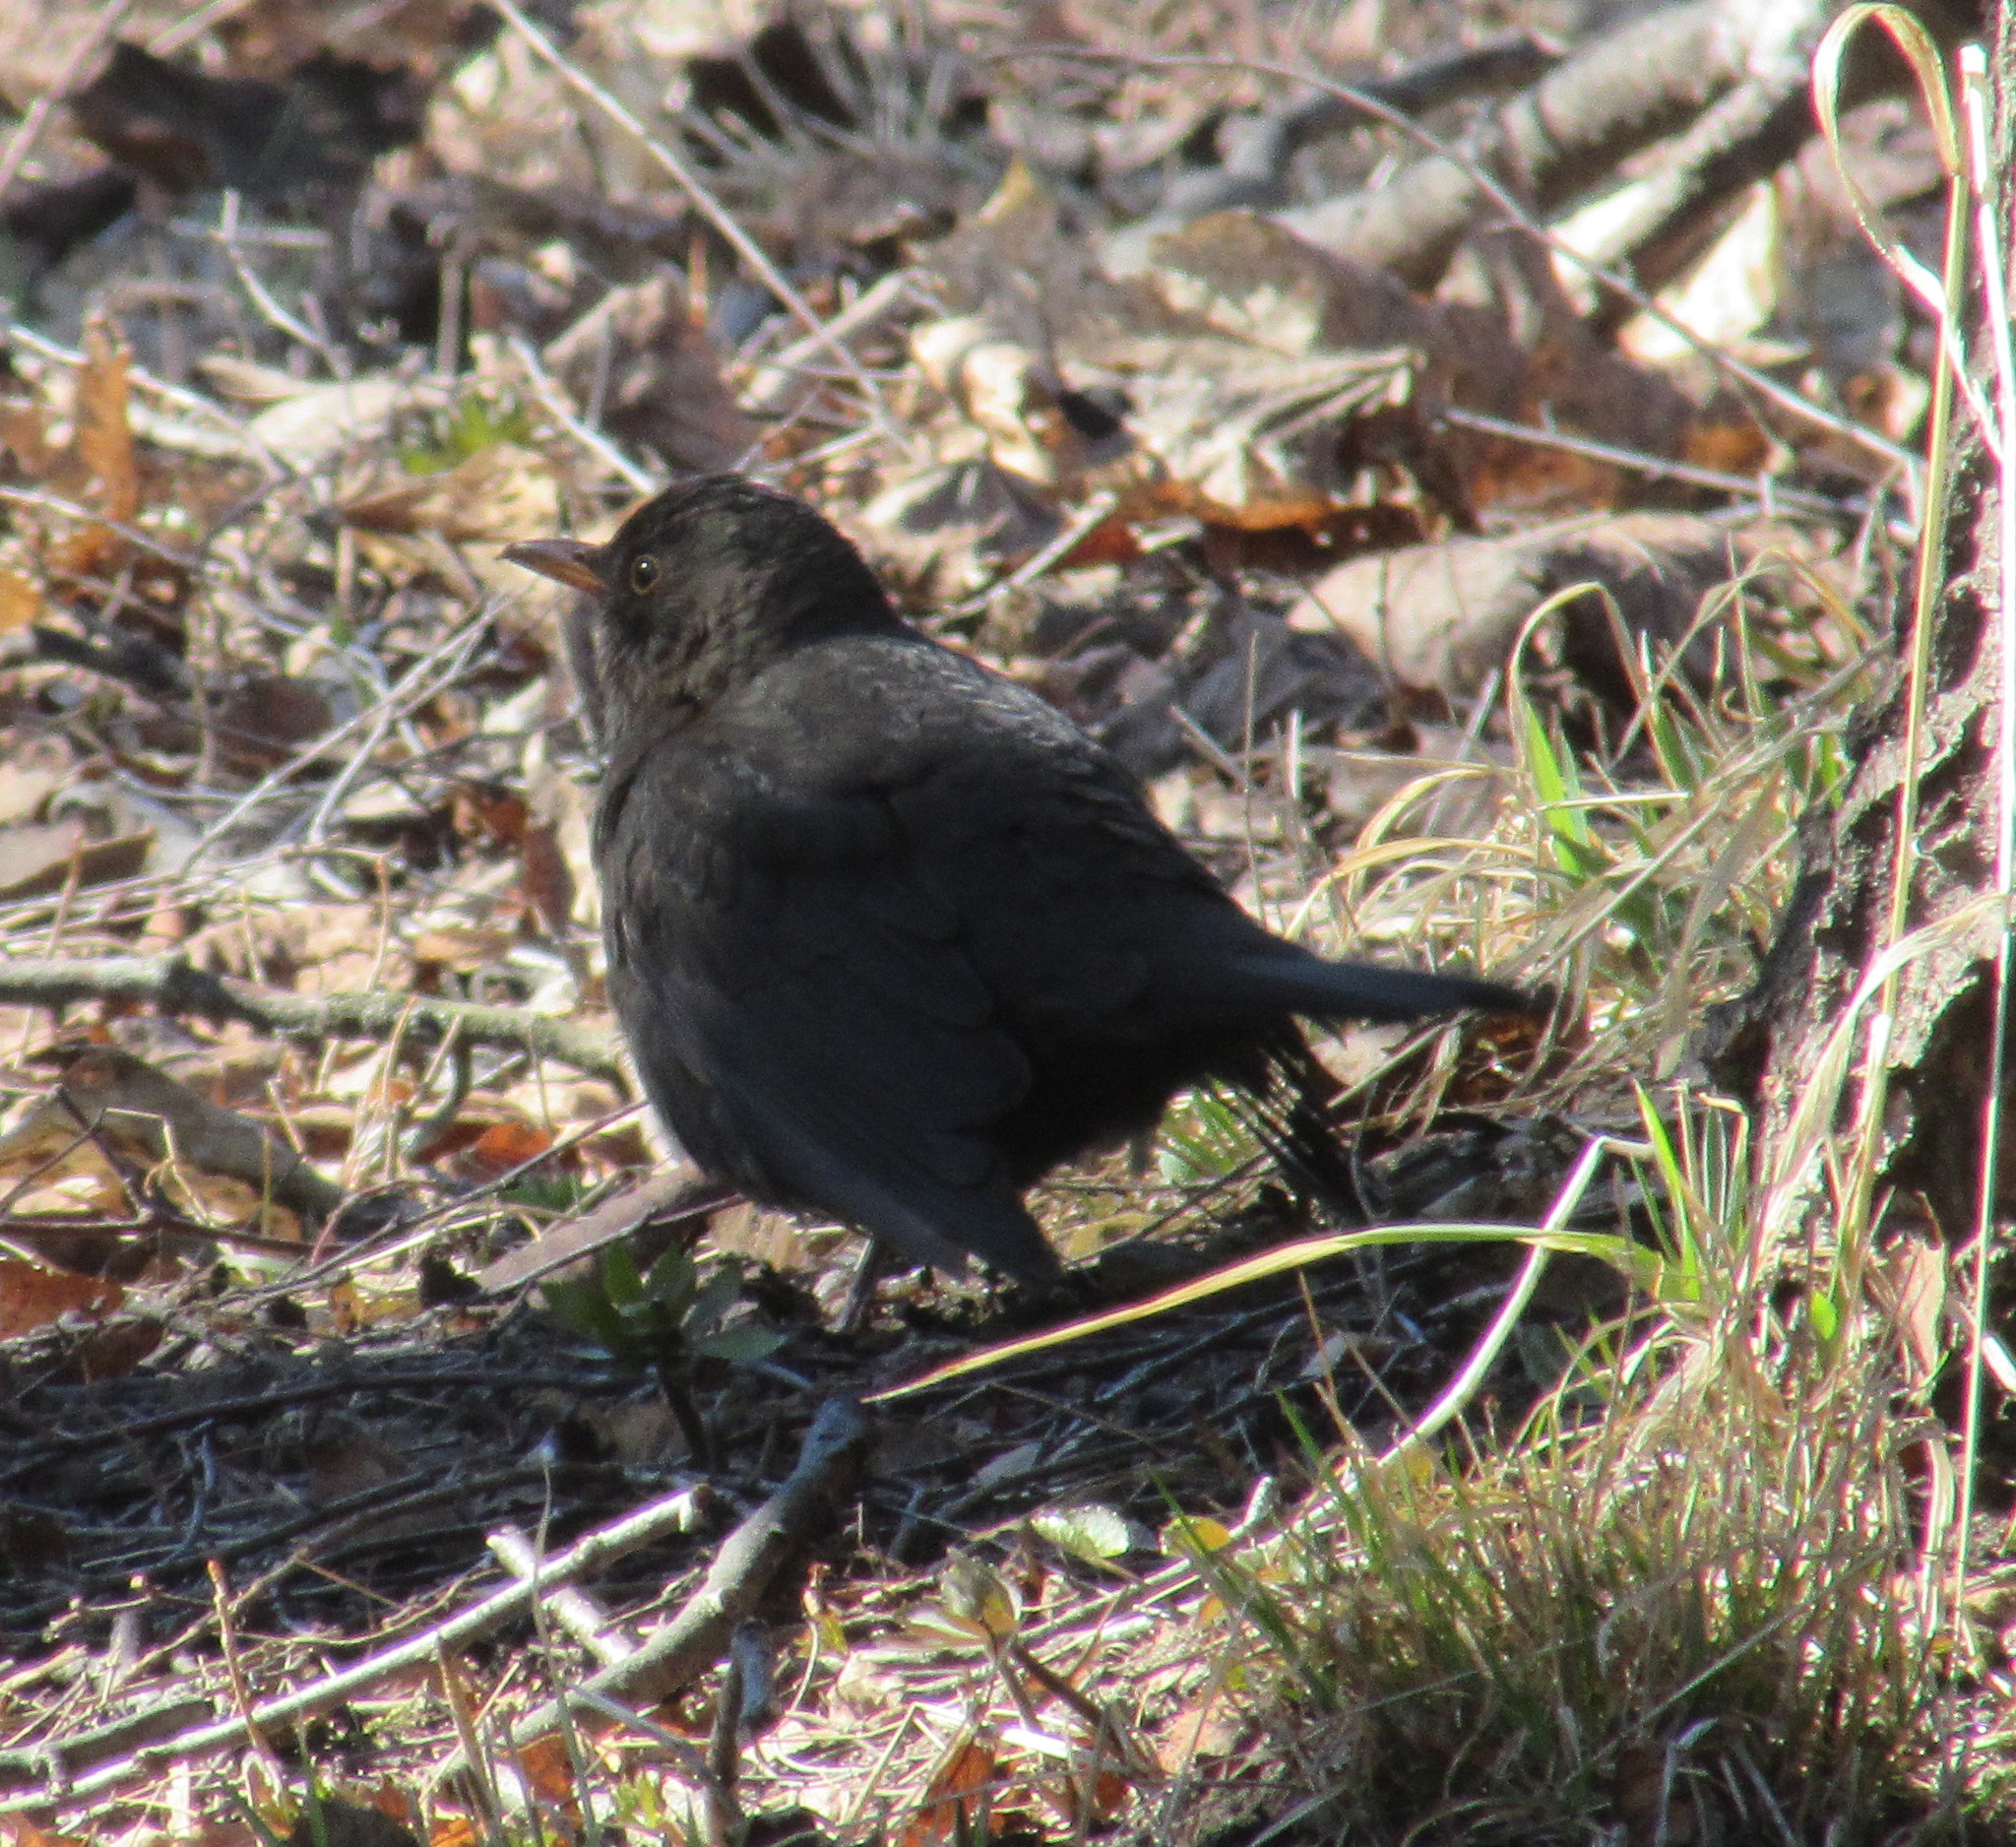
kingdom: Animalia
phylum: Chordata
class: Aves
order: Passeriformes
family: Turdidae
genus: Turdus
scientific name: Turdus merula
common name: Common blackbird
